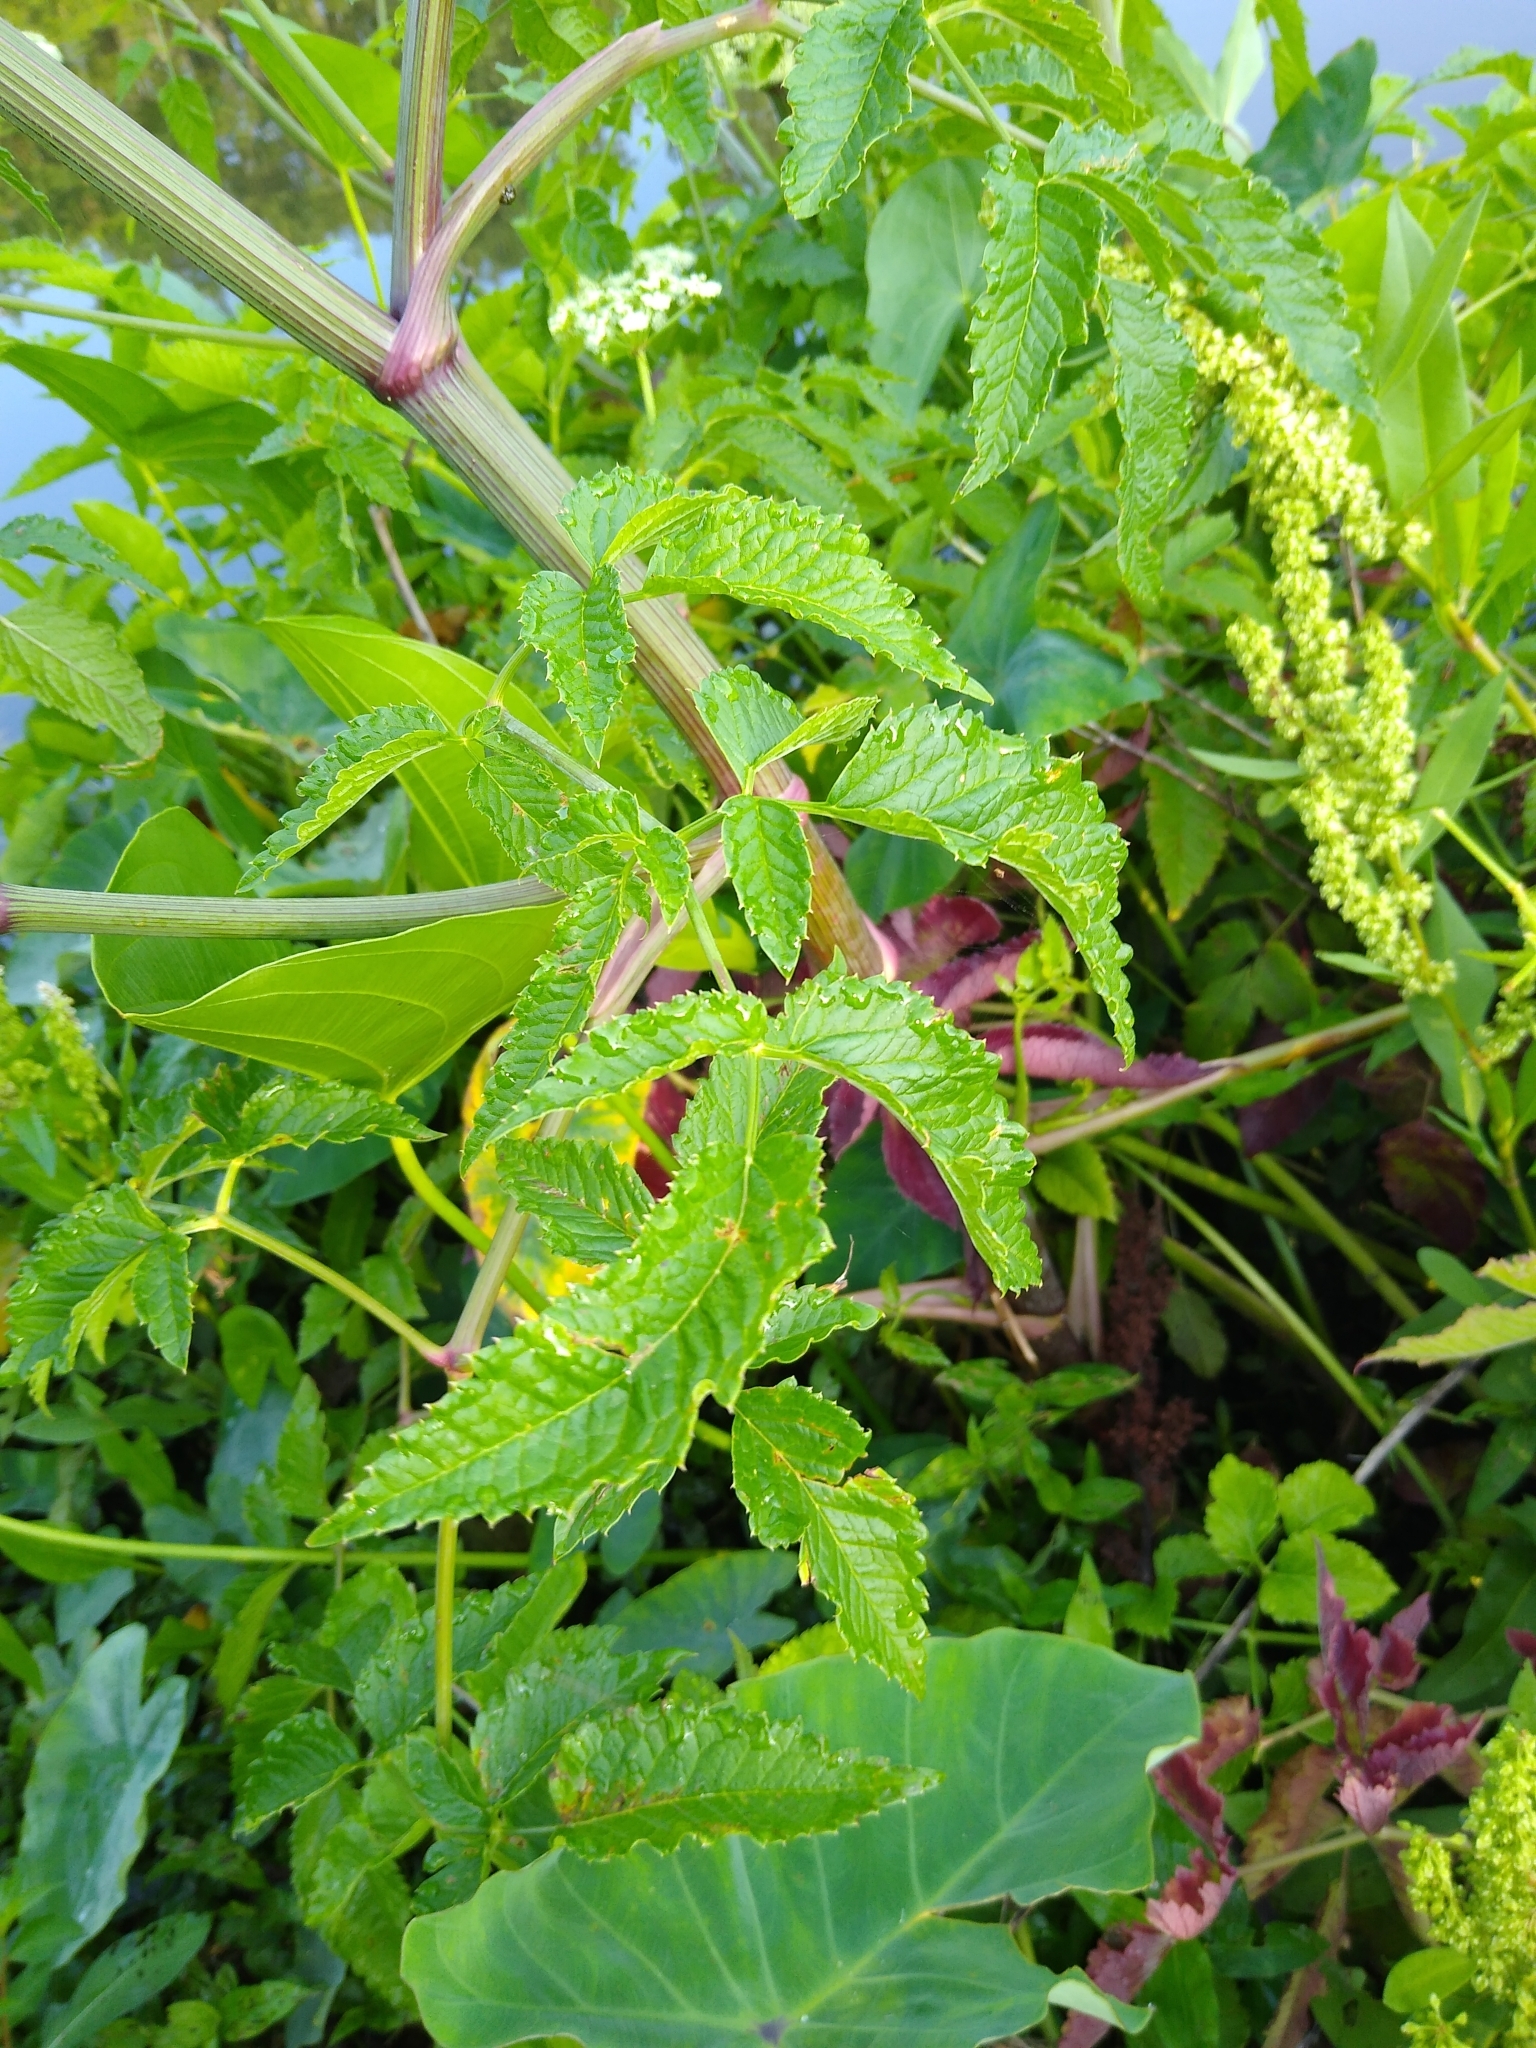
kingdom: Plantae
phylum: Tracheophyta
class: Magnoliopsida
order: Apiales
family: Apiaceae
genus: Cicuta
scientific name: Cicuta maculata
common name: Spotted cowbane
